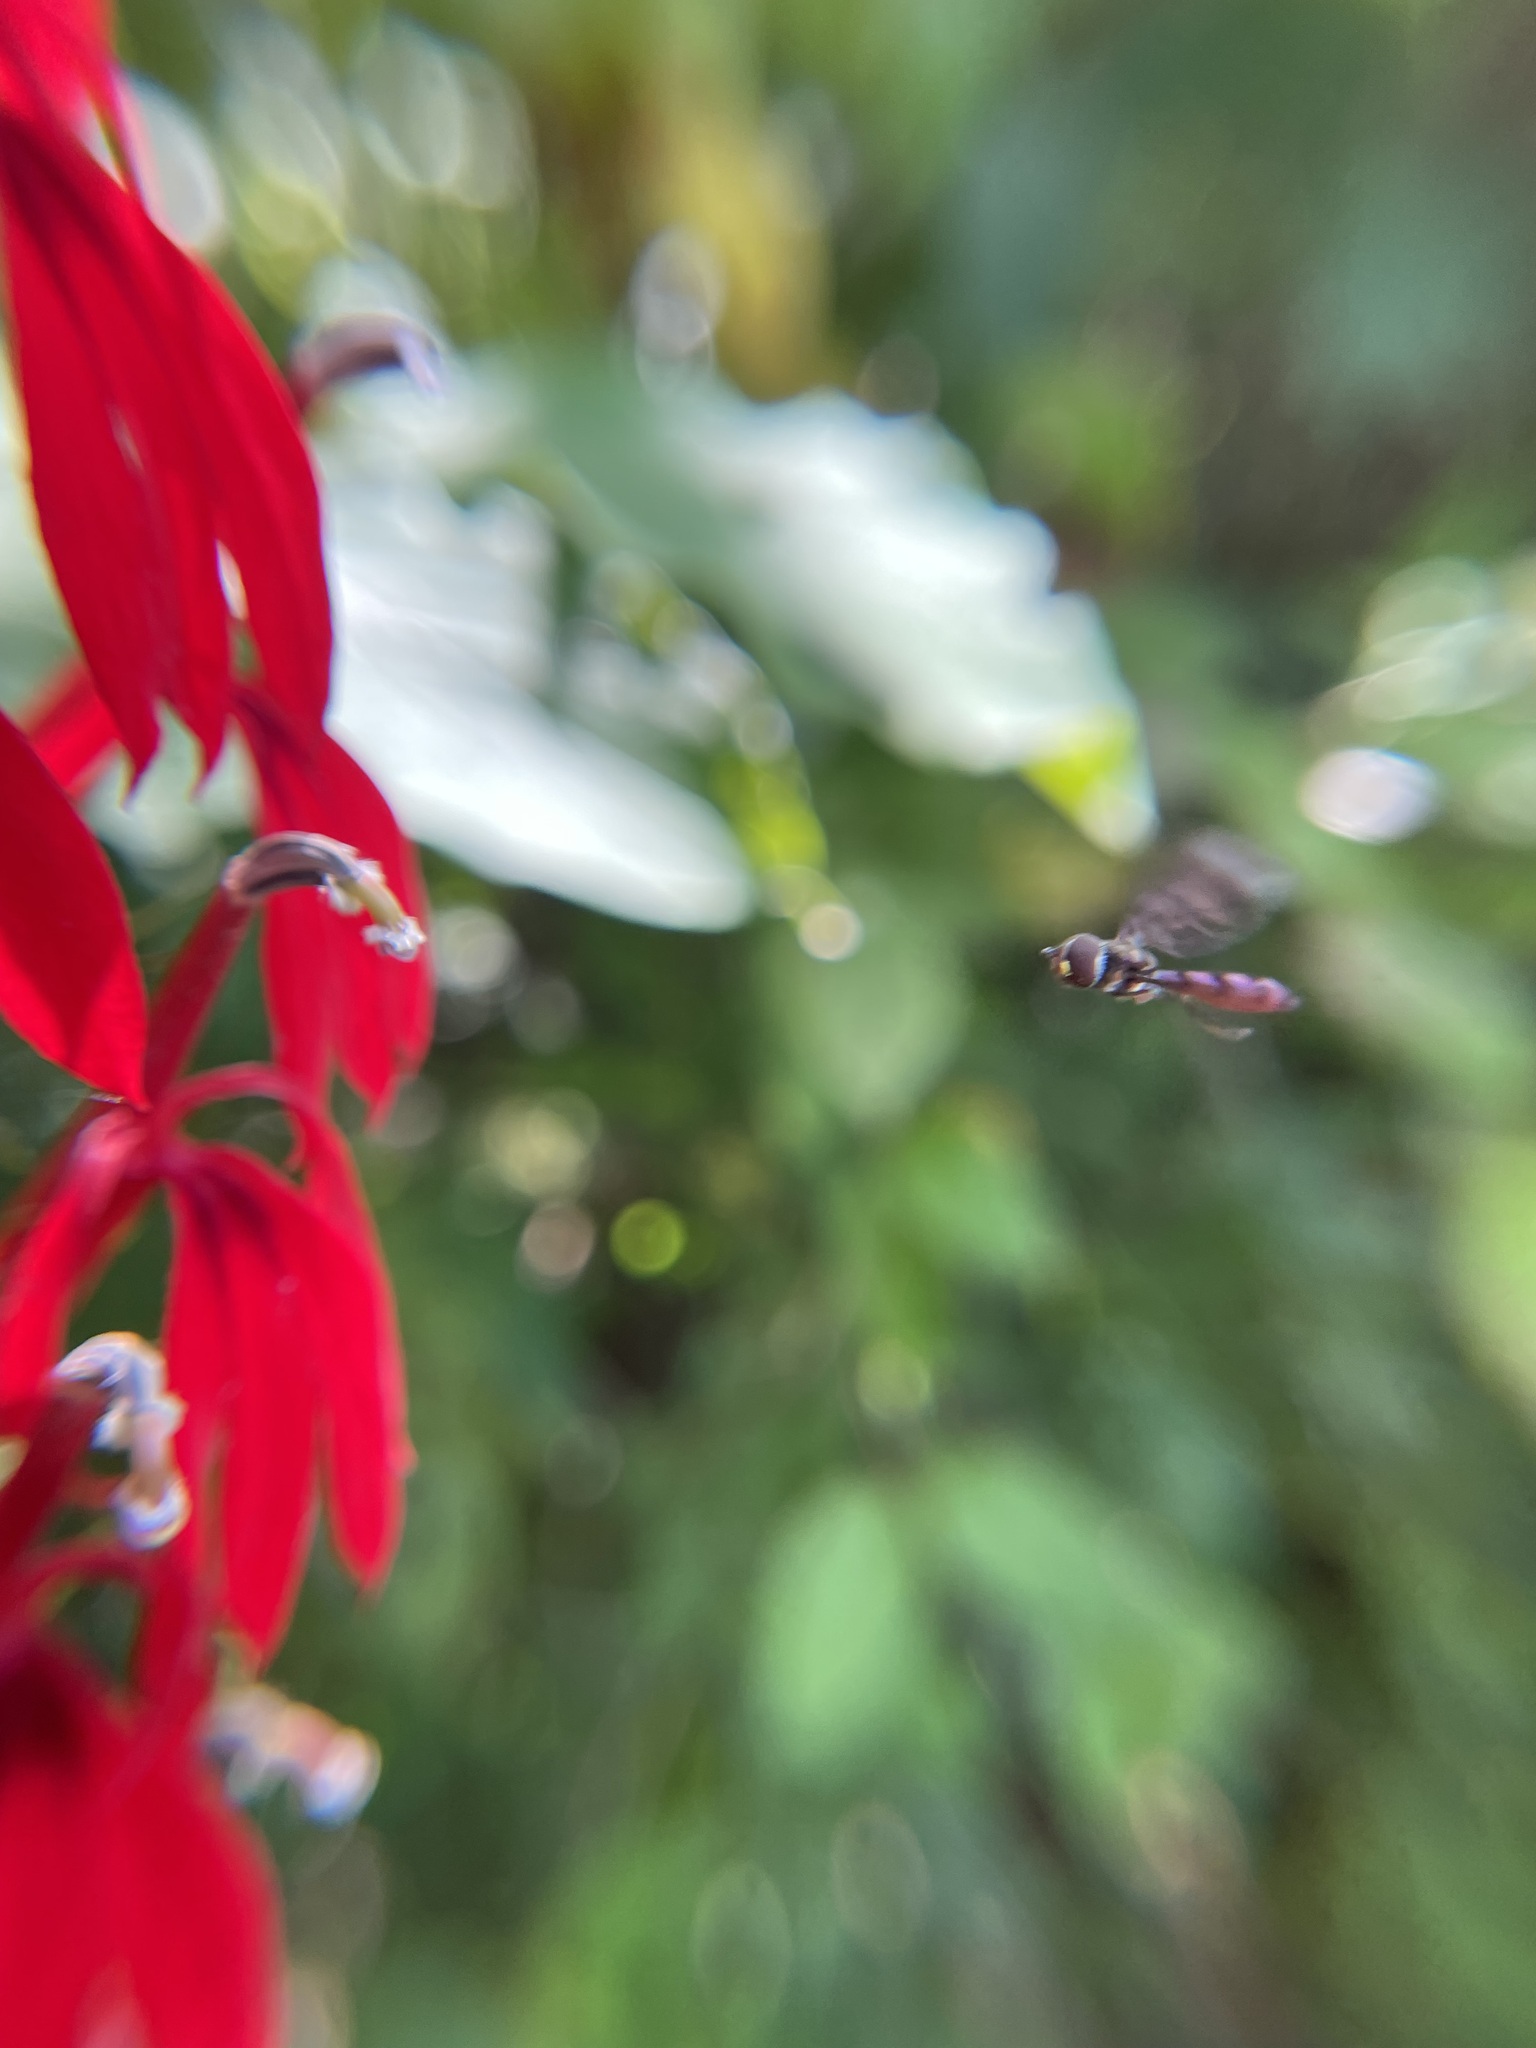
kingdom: Animalia
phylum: Arthropoda
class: Insecta
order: Diptera
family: Syrphidae
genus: Ocyptamus
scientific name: Ocyptamus fuscipennis
